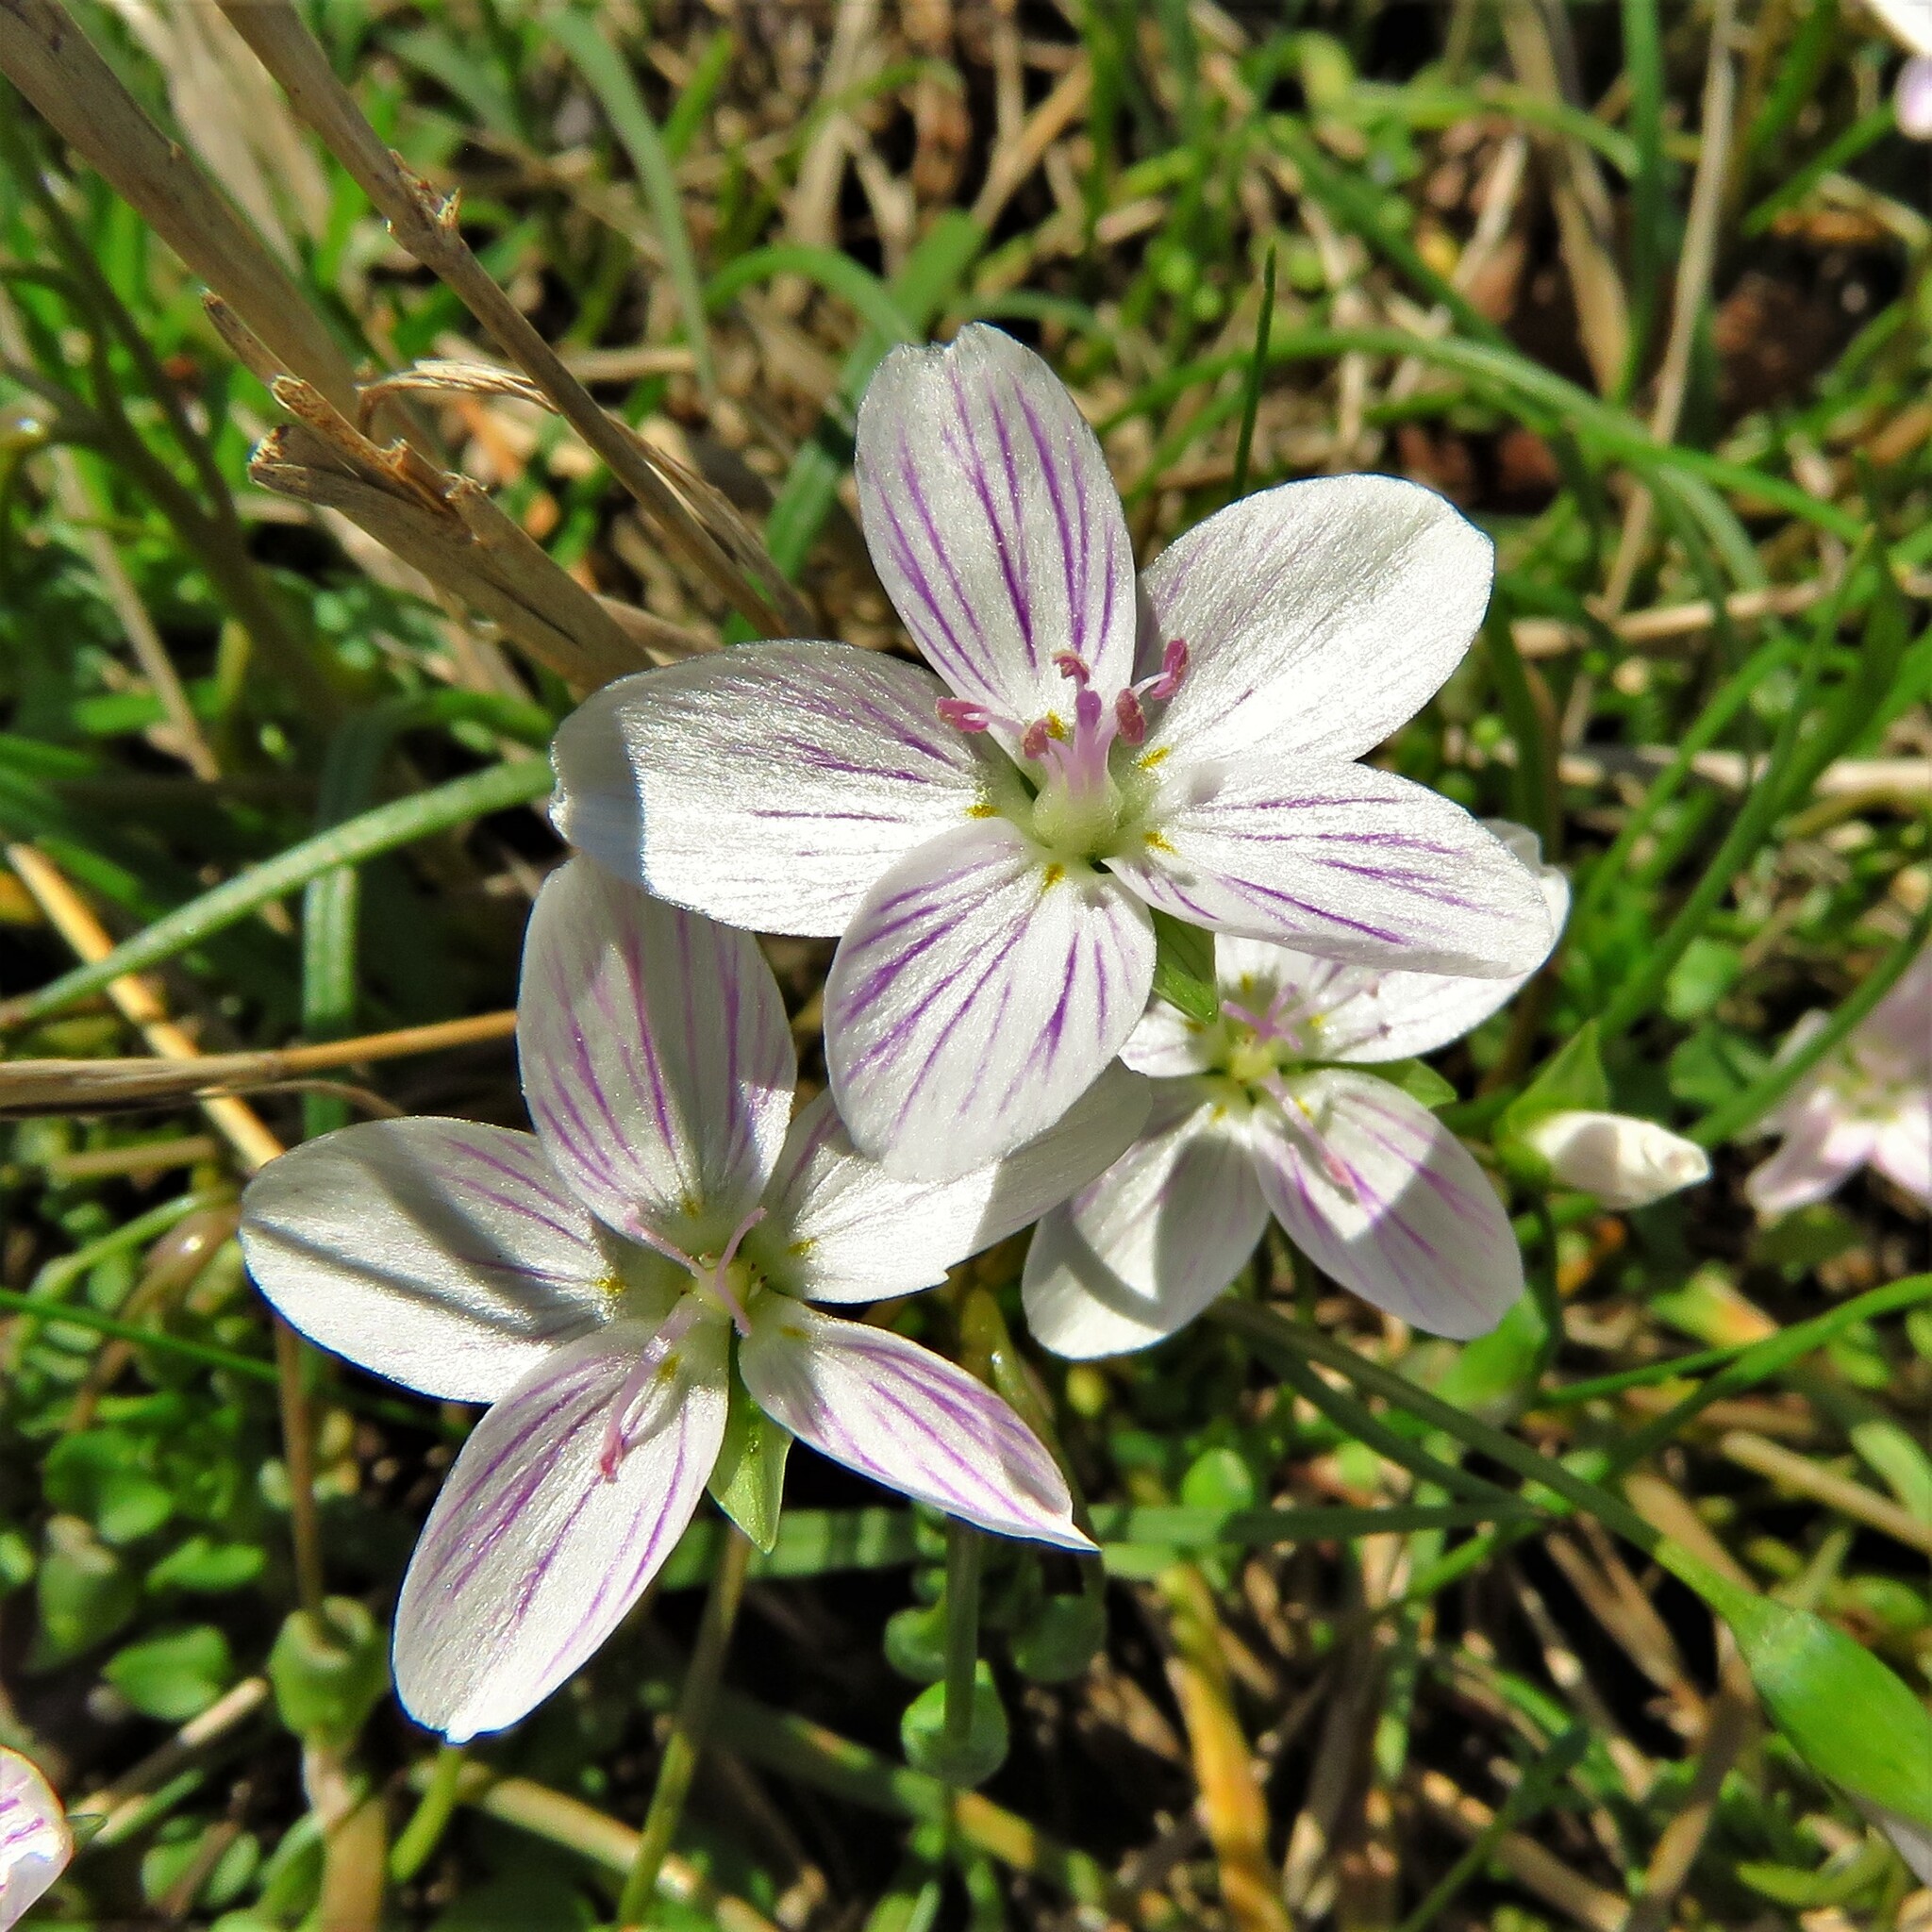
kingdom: Plantae
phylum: Tracheophyta
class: Magnoliopsida
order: Caryophyllales
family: Montiaceae
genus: Claytonia
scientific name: Claytonia virginica
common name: Virginia springbeauty
